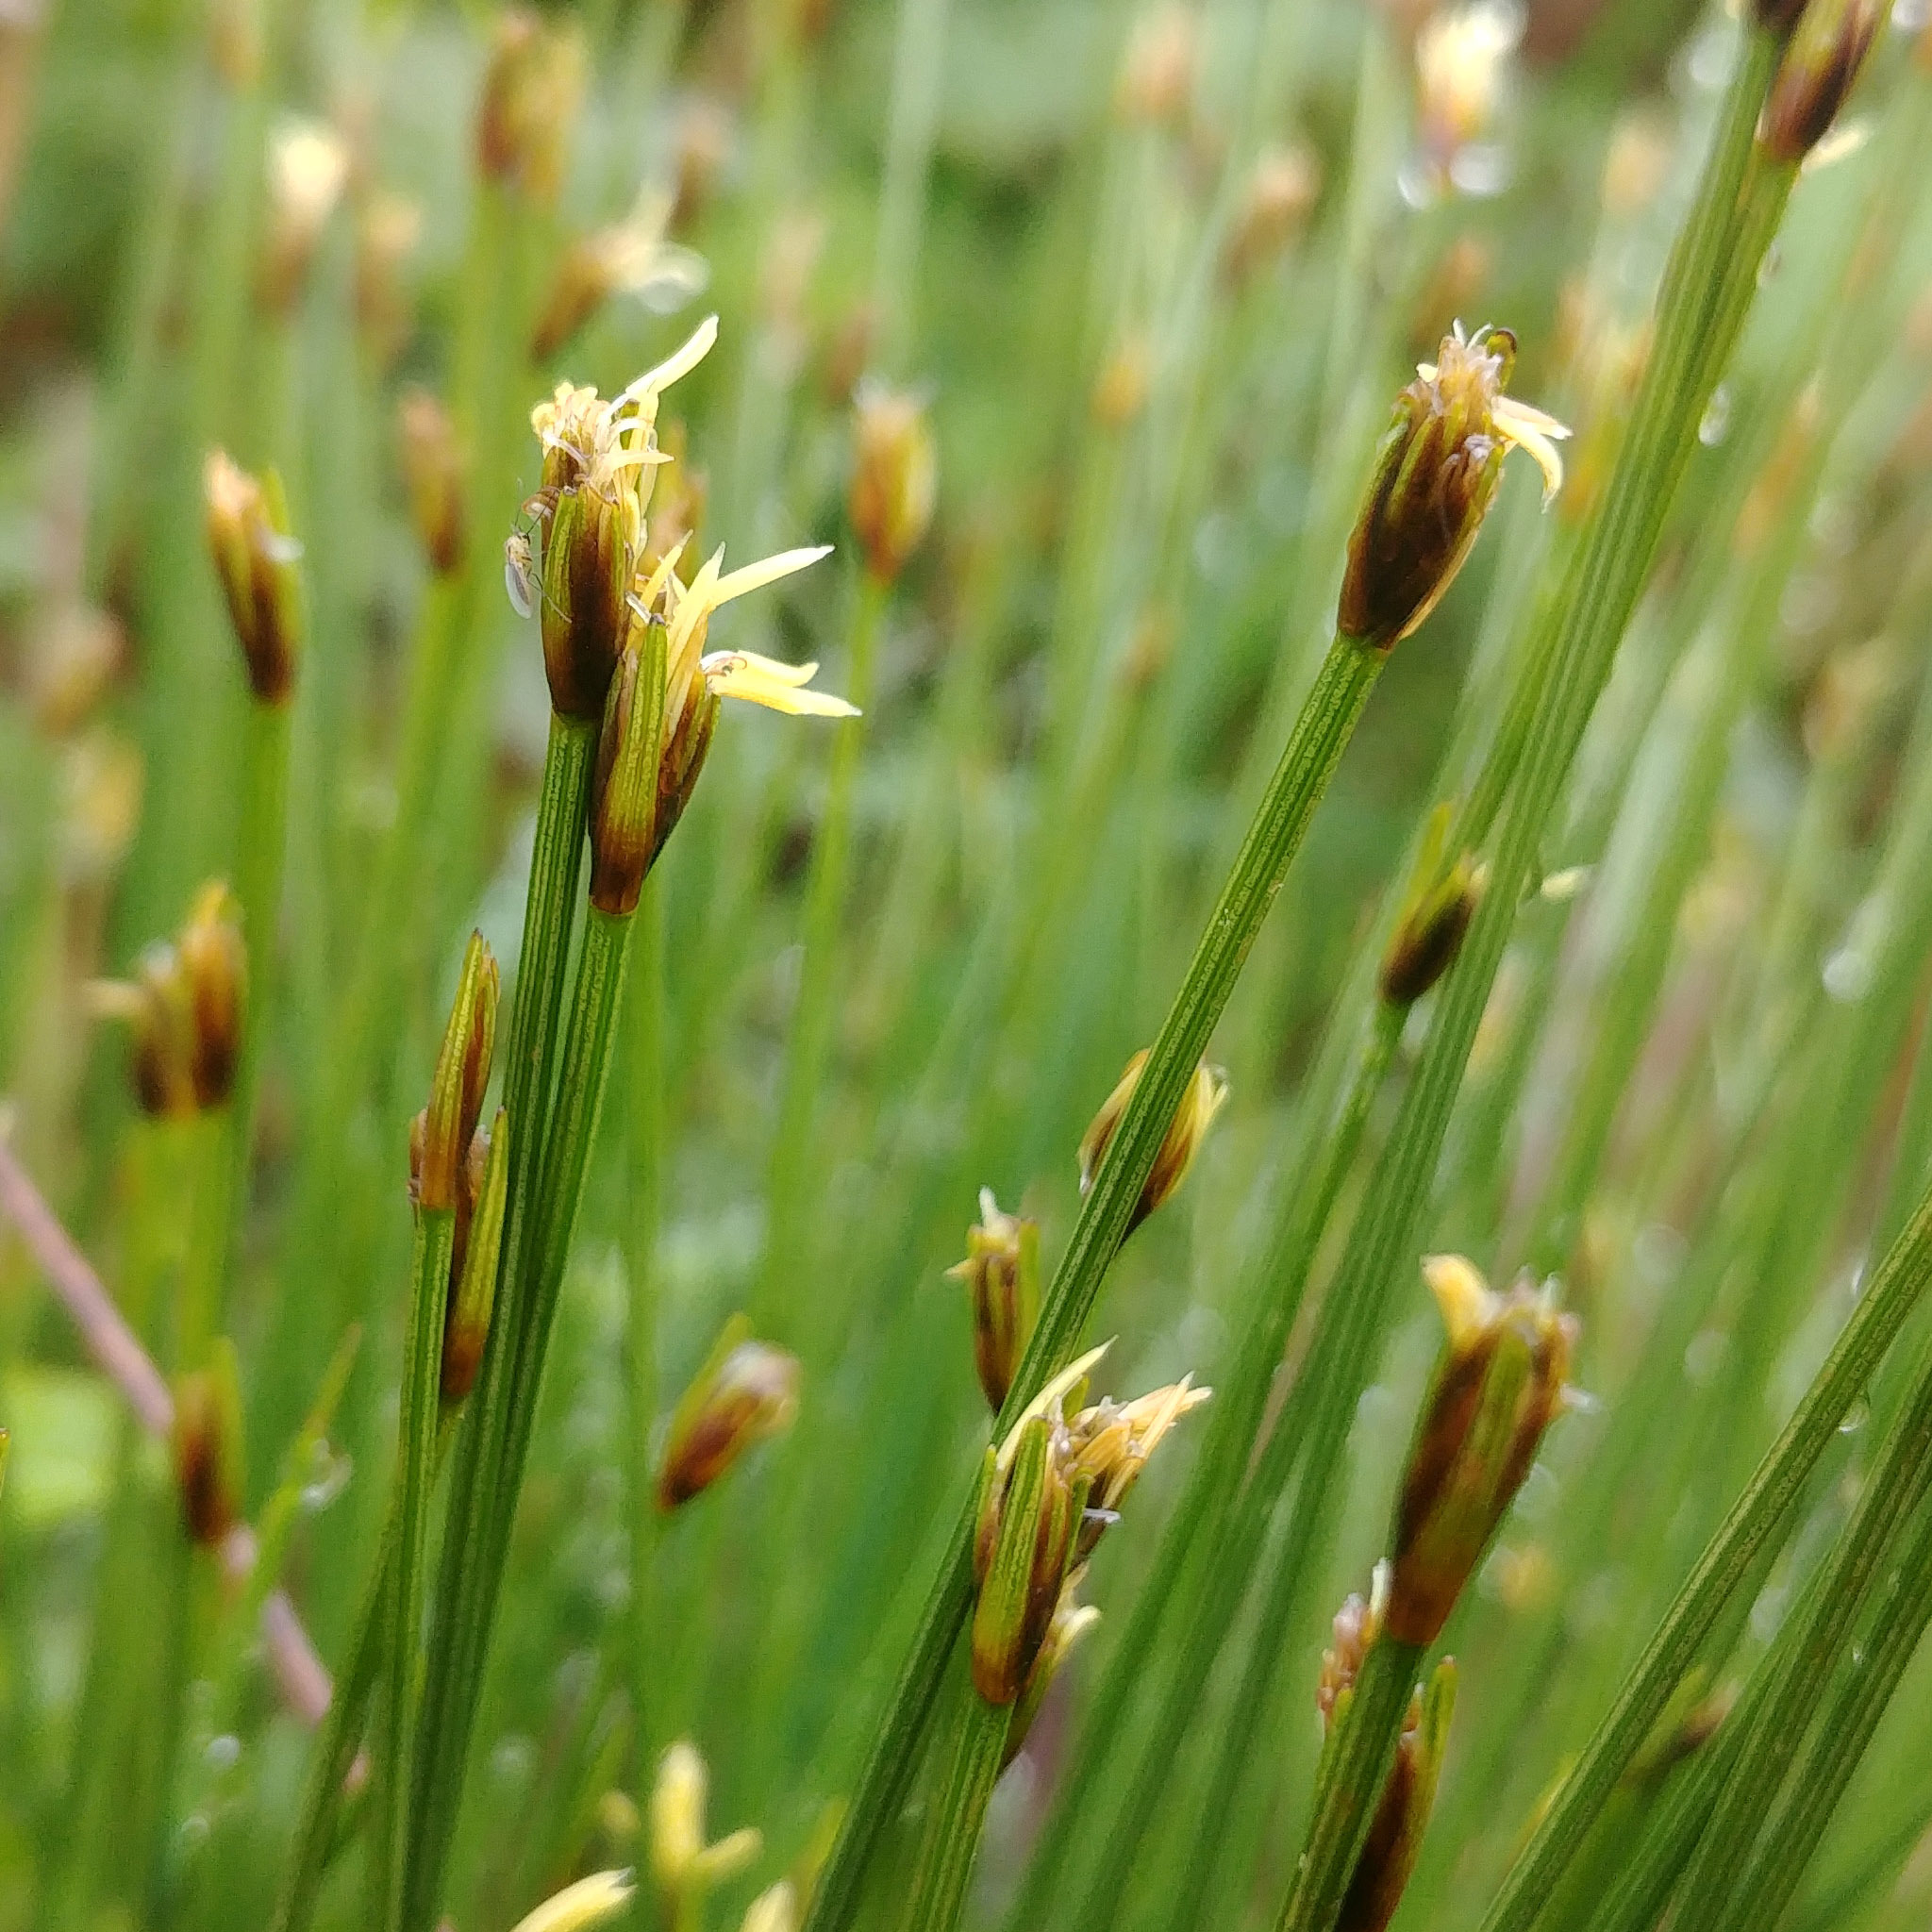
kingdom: Plantae
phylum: Tracheophyta
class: Liliopsida
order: Poales
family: Cyperaceae
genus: Trichophorum
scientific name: Trichophorum cespitosum
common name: Cespitose bulrush
